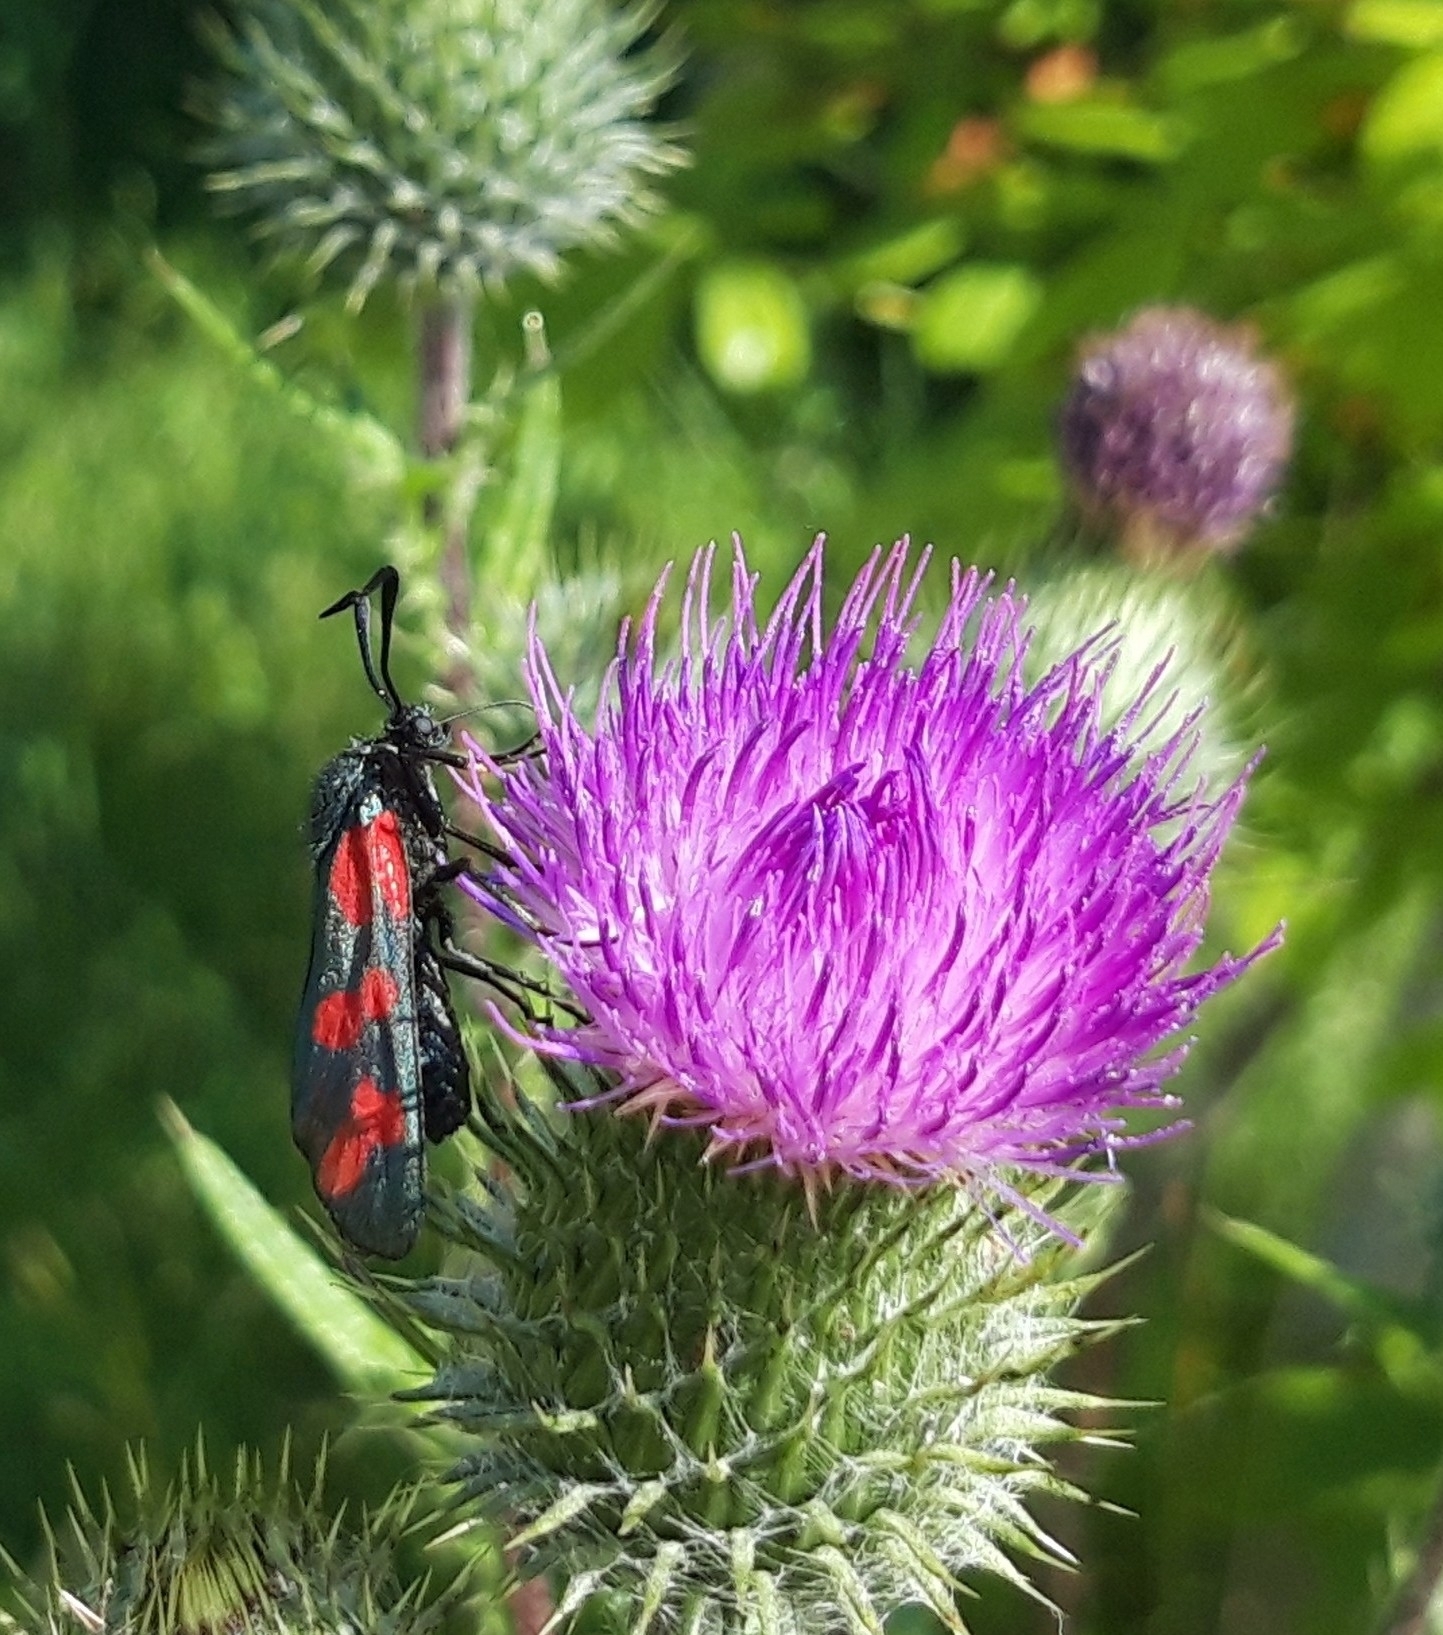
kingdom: Animalia
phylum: Arthropoda
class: Insecta
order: Lepidoptera
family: Zygaenidae
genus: Zygaena
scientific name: Zygaena filipendulae
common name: Six-spot burnet
